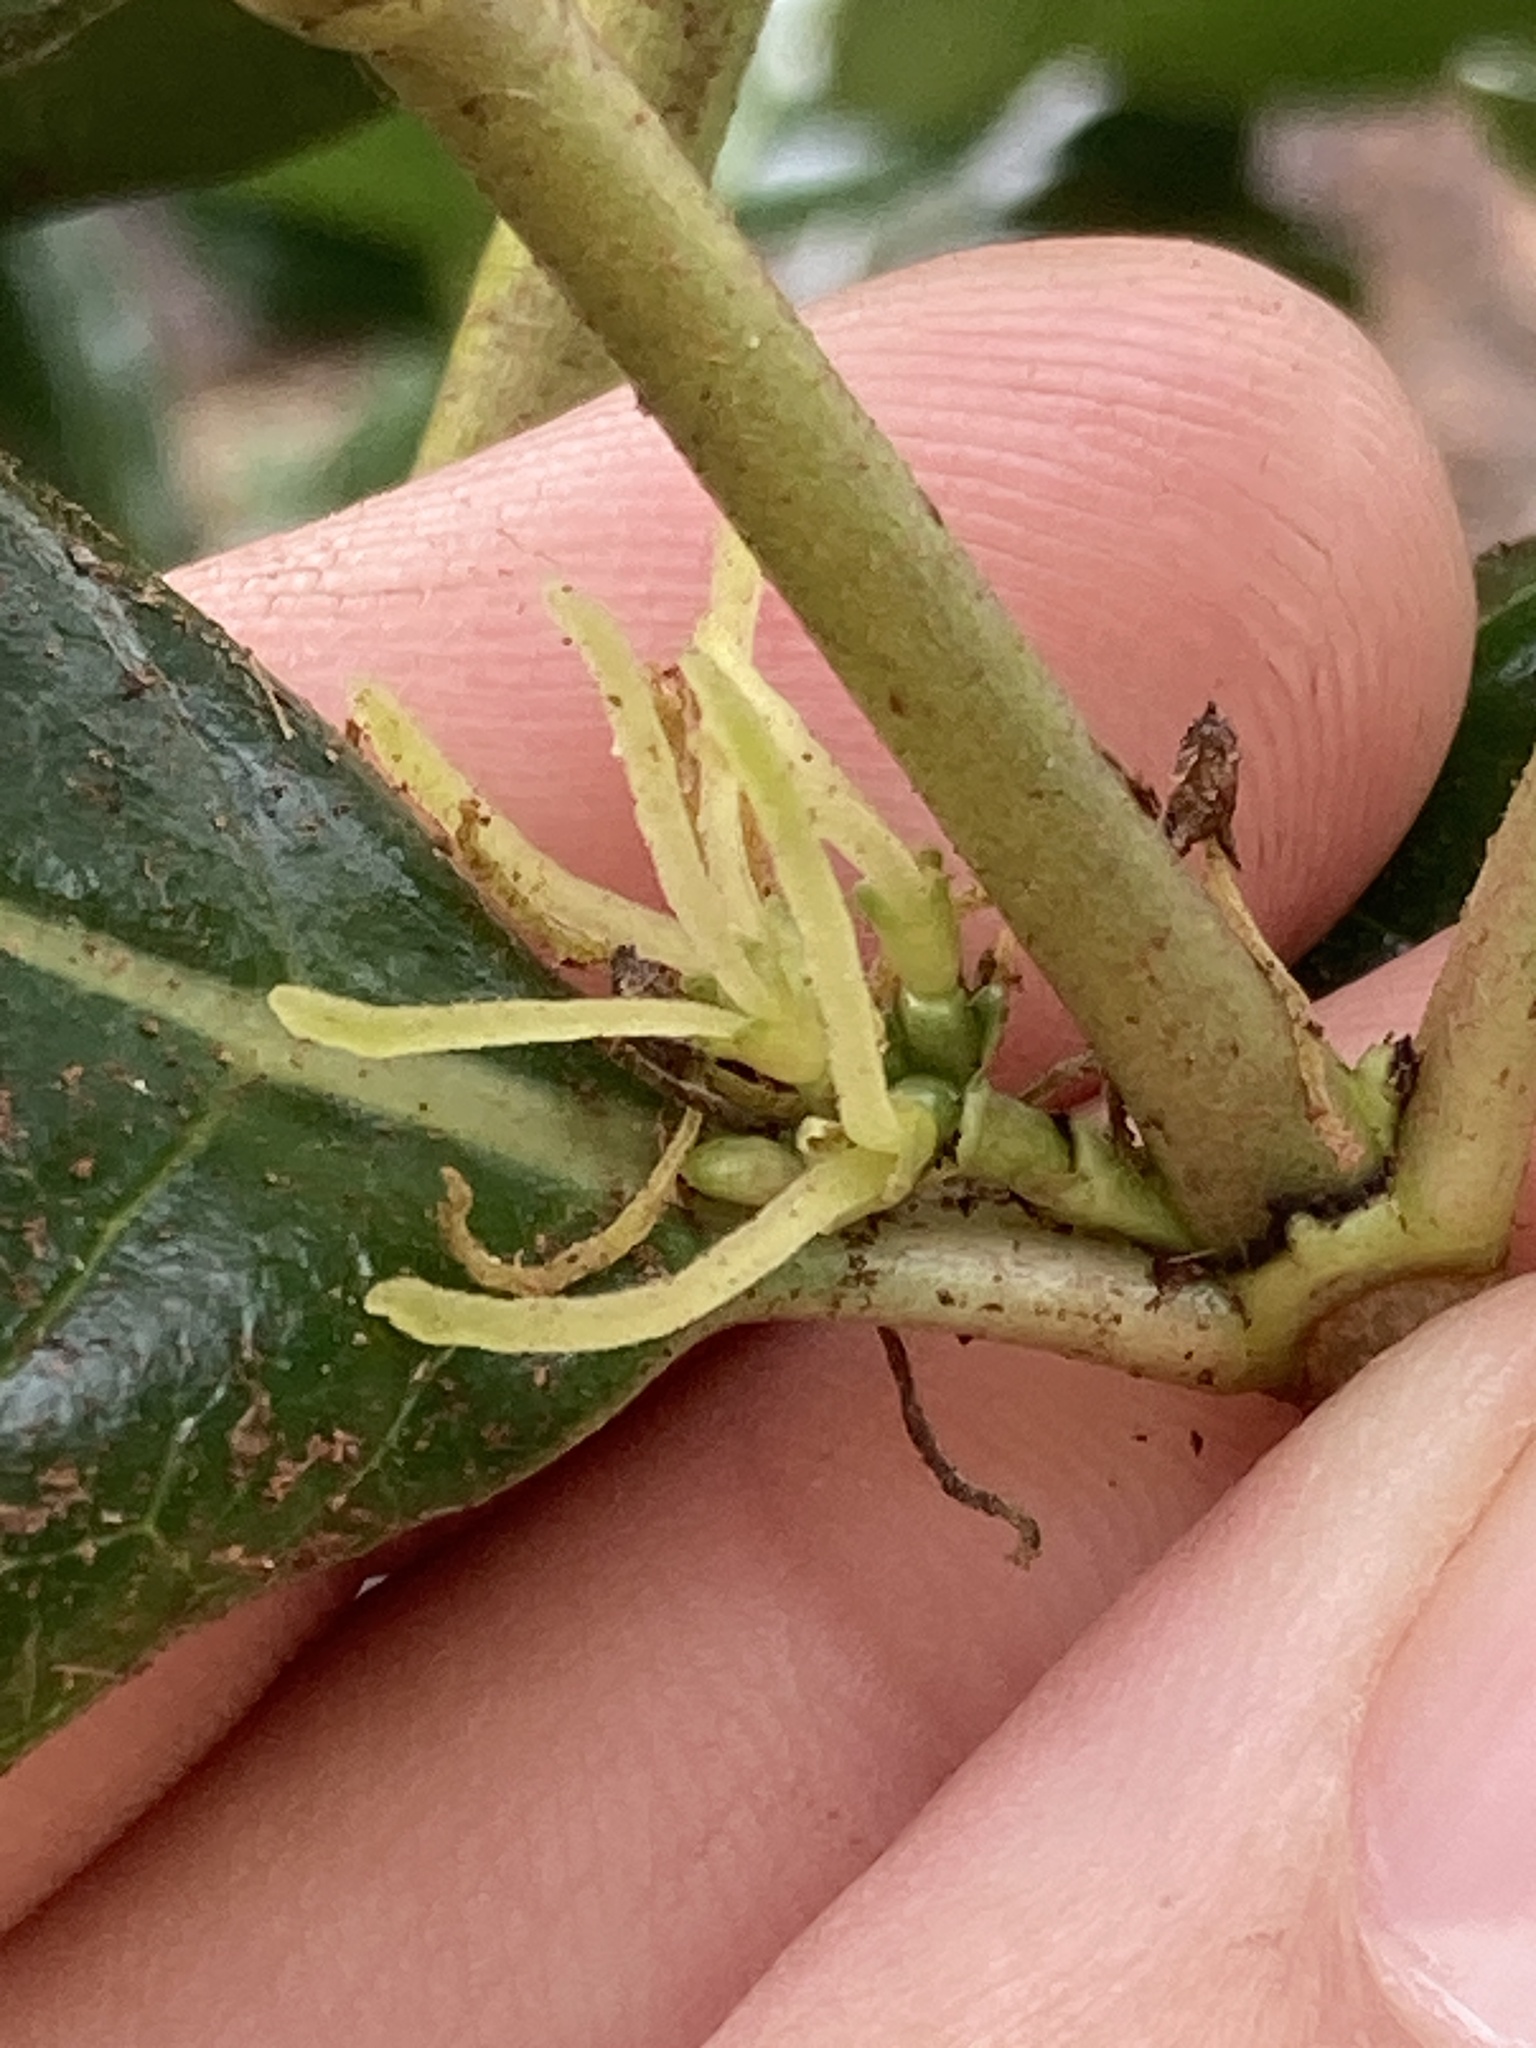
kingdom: Plantae
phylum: Tracheophyta
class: Magnoliopsida
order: Gentianales
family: Rubiaceae
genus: Coprosma
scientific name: Coprosma repens
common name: Tree bedstraw
